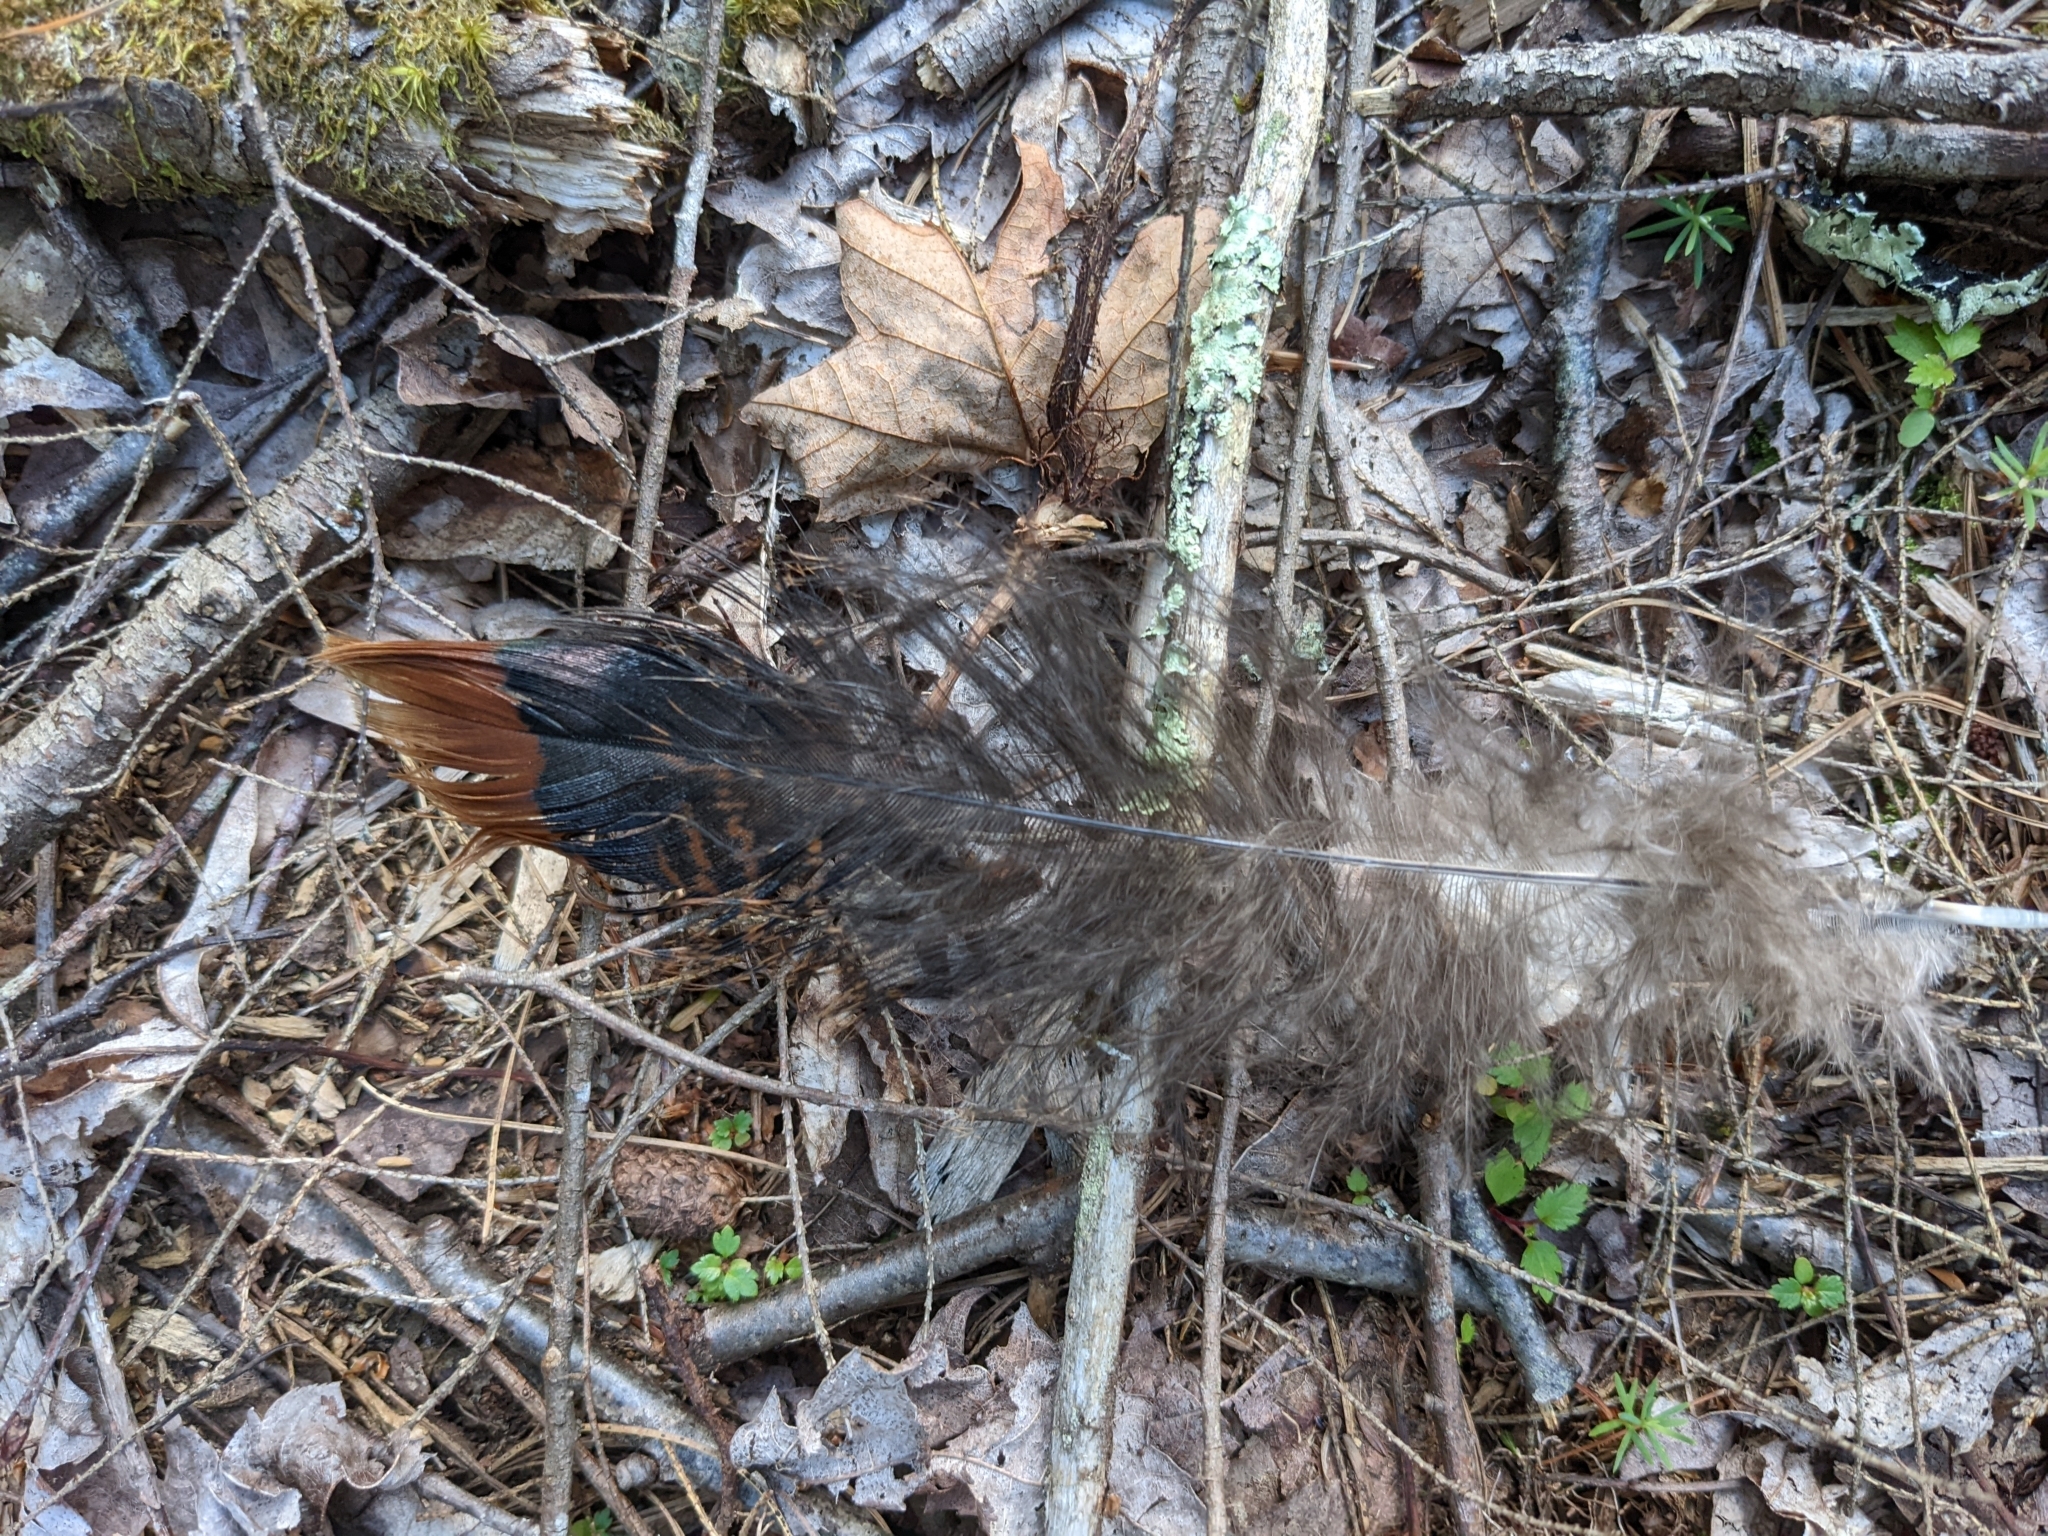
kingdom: Animalia
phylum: Chordata
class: Aves
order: Galliformes
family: Phasianidae
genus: Meleagris
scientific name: Meleagris gallopavo
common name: Wild turkey
